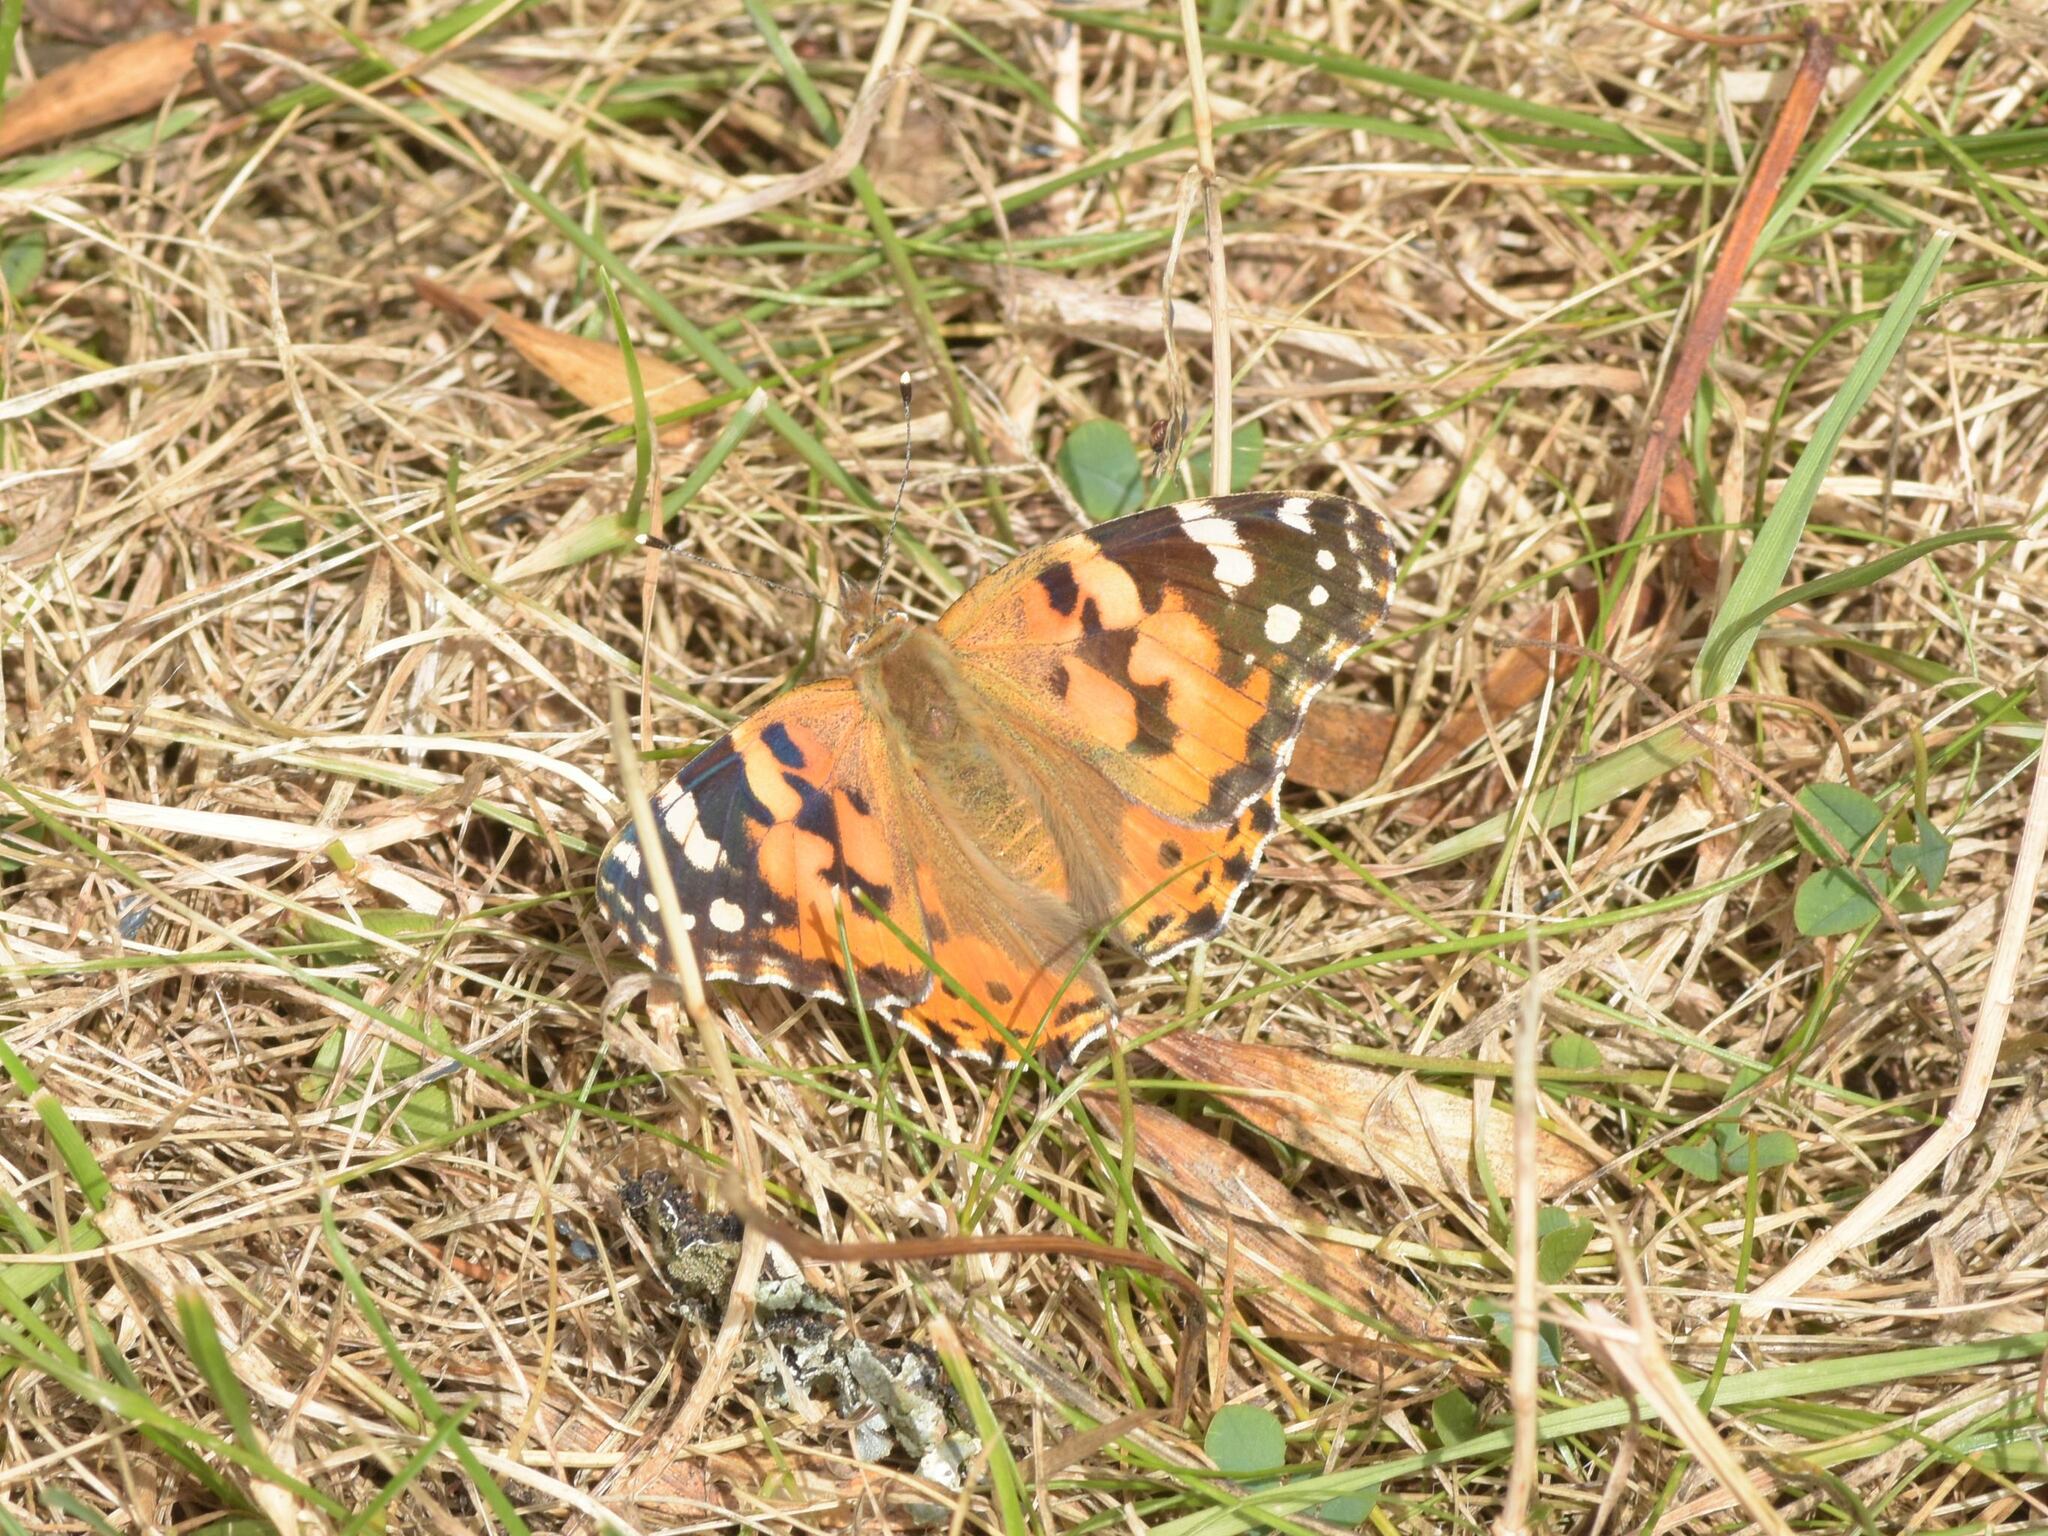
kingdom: Animalia
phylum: Arthropoda
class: Insecta
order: Lepidoptera
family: Nymphalidae
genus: Vanessa
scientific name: Vanessa cardui
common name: Painted lady
